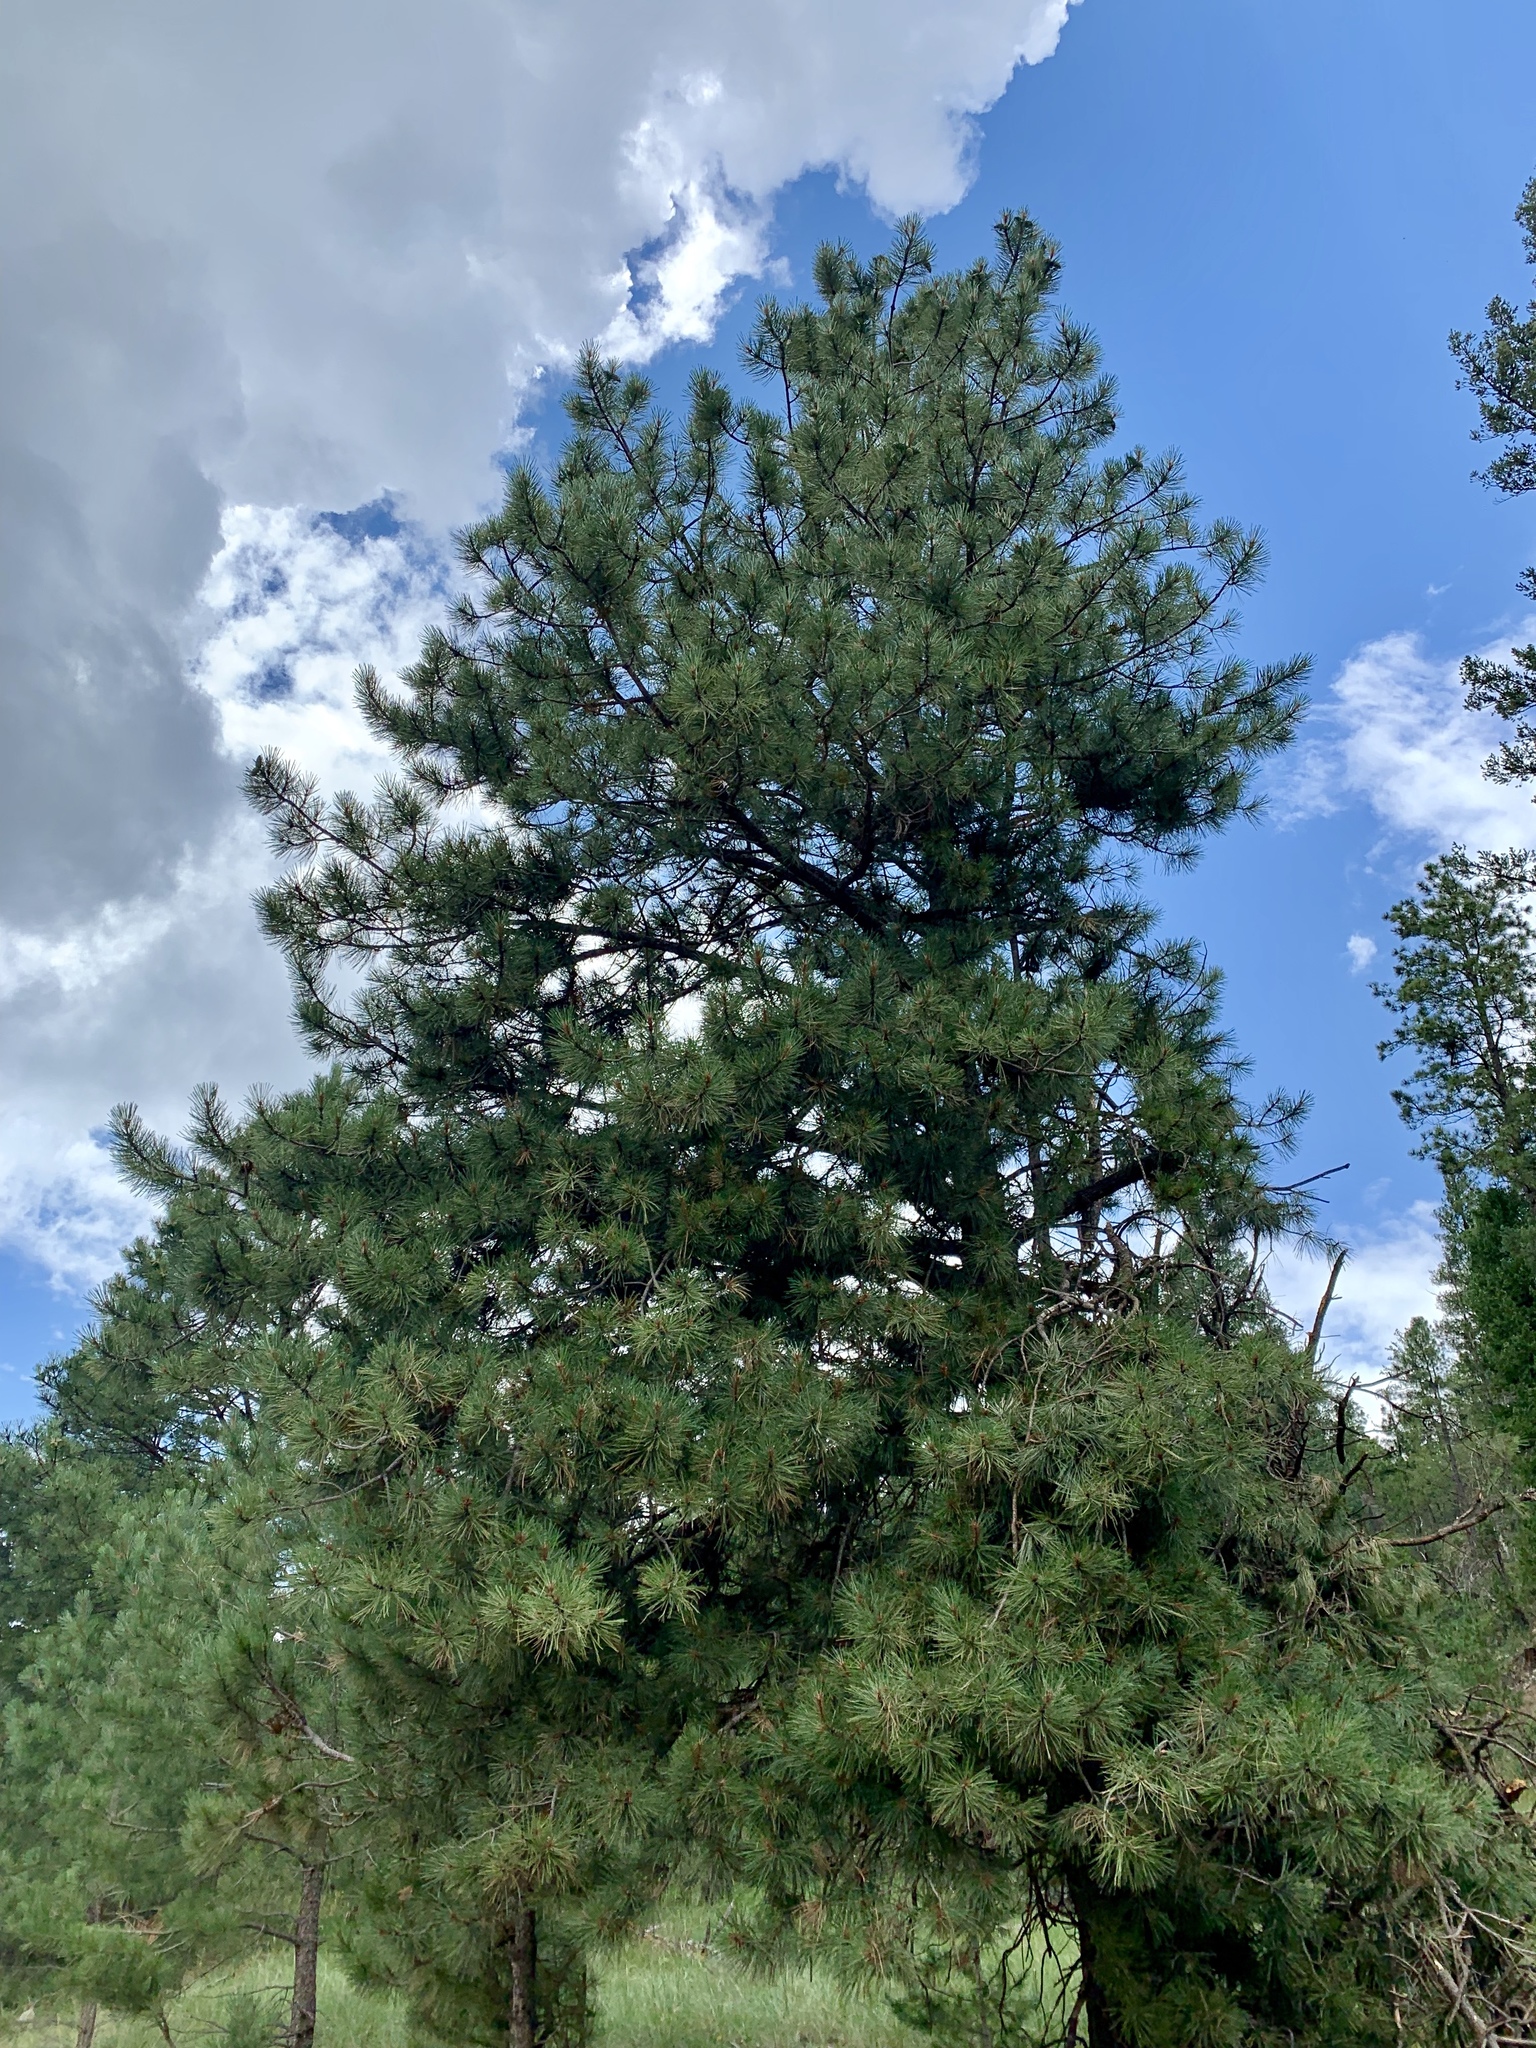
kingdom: Plantae
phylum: Tracheophyta
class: Pinopsida
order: Pinales
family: Pinaceae
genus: Pinus
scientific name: Pinus ponderosa
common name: Western yellow-pine
